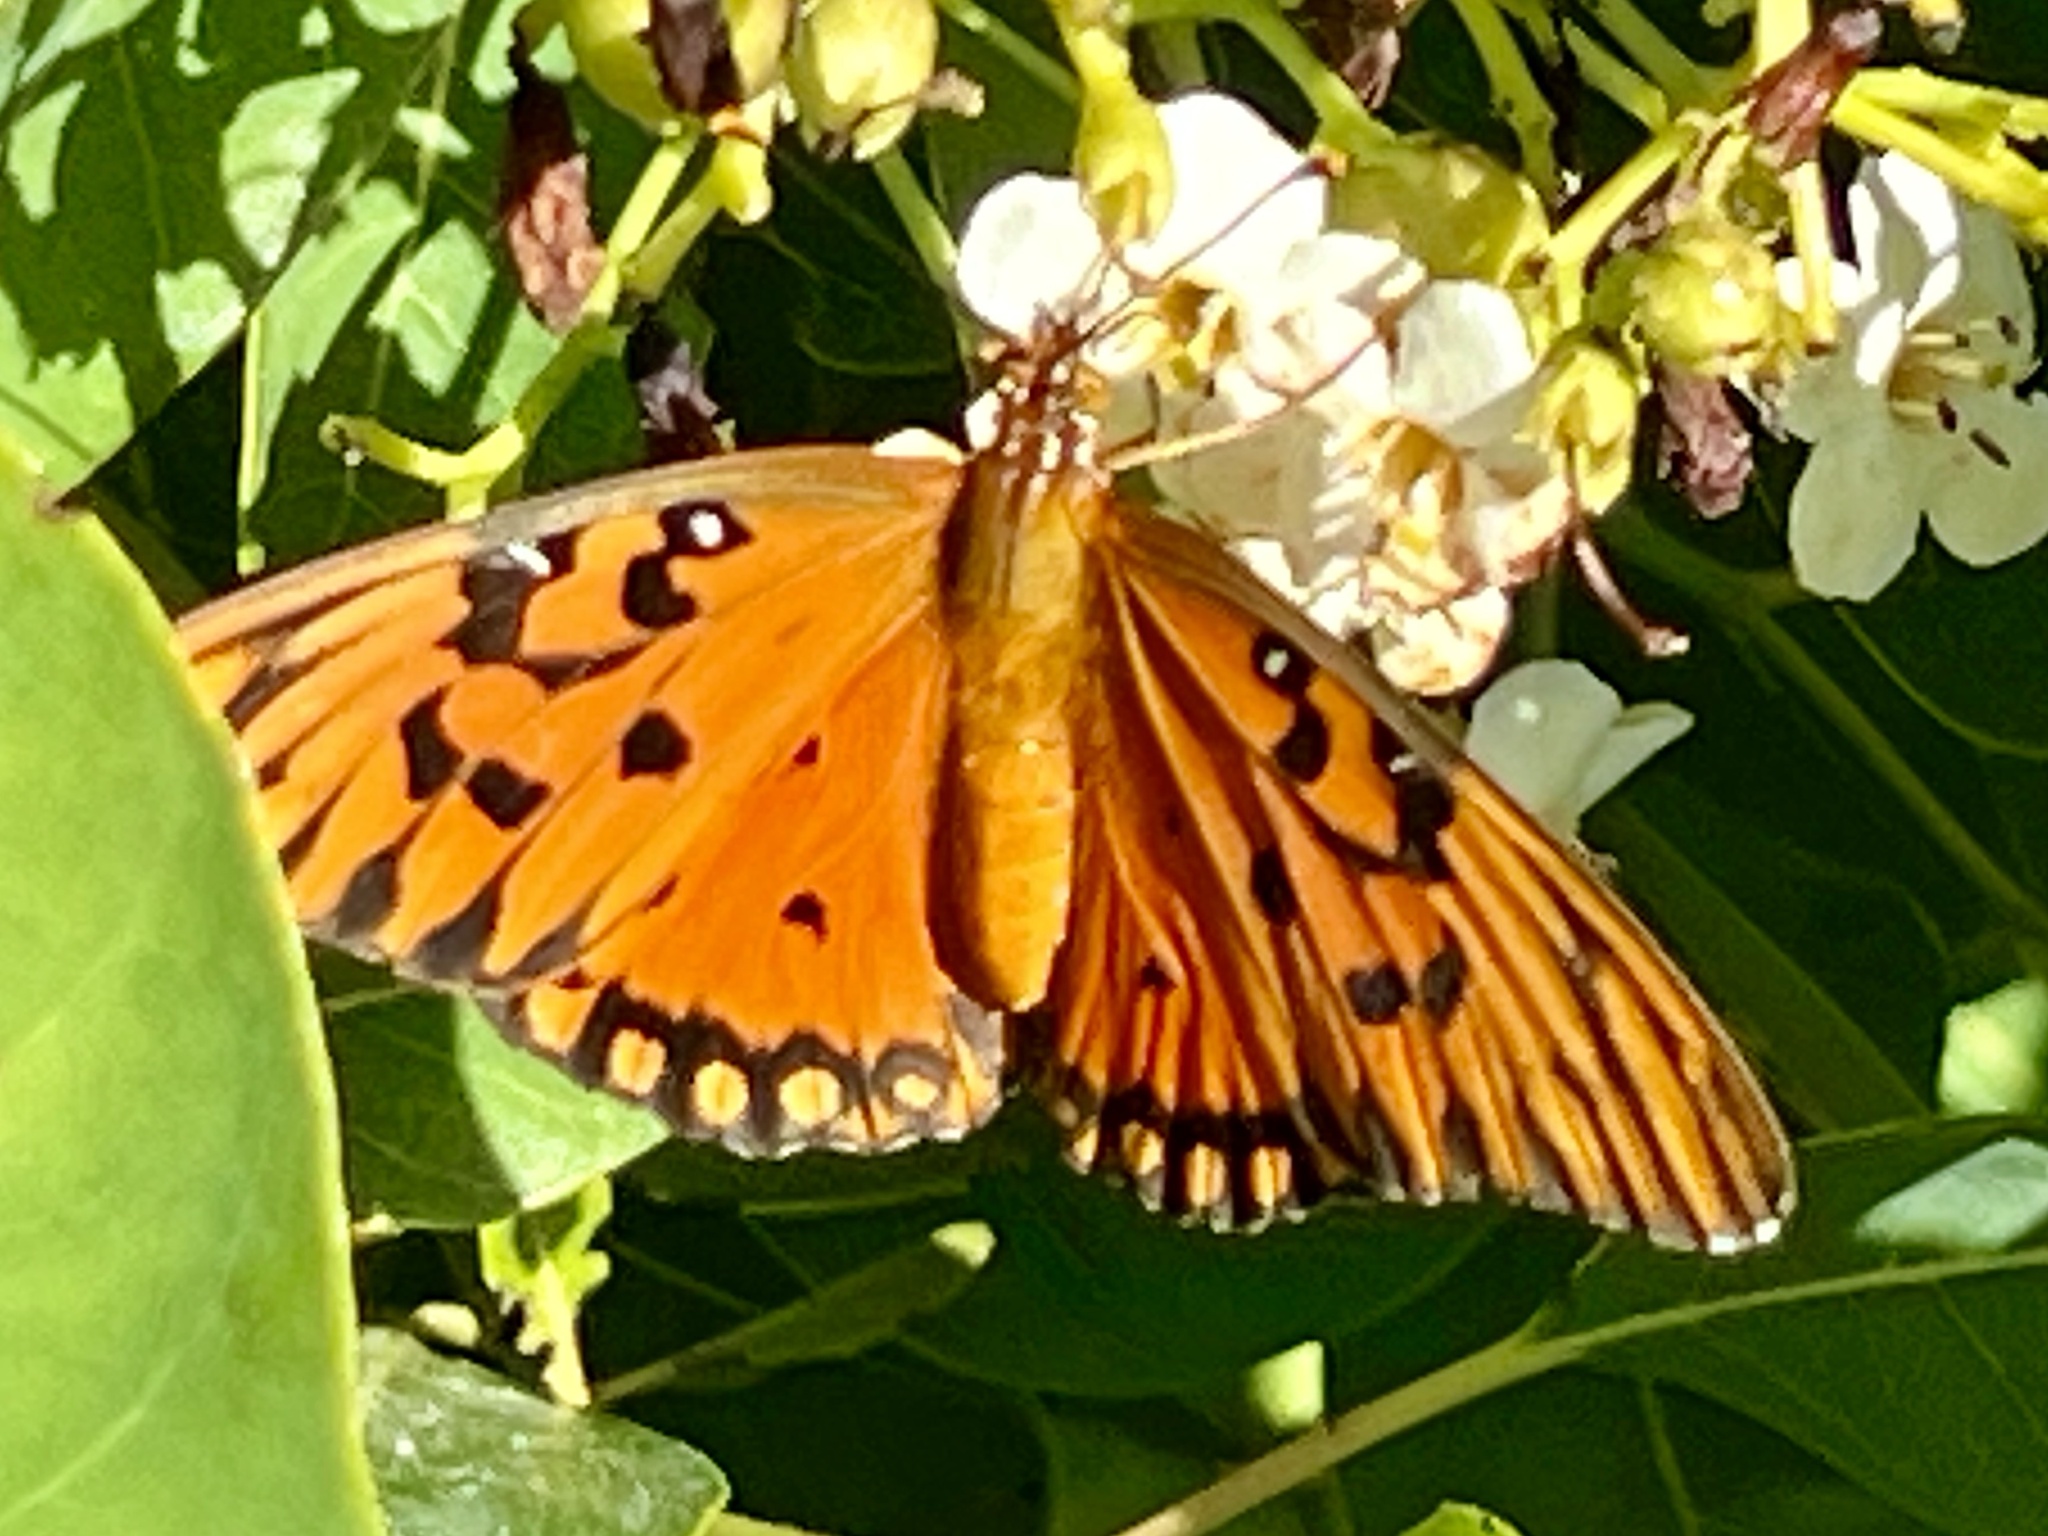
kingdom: Animalia
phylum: Arthropoda
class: Insecta
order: Lepidoptera
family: Nymphalidae
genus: Dione
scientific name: Dione vanillae
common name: Gulf fritillary
